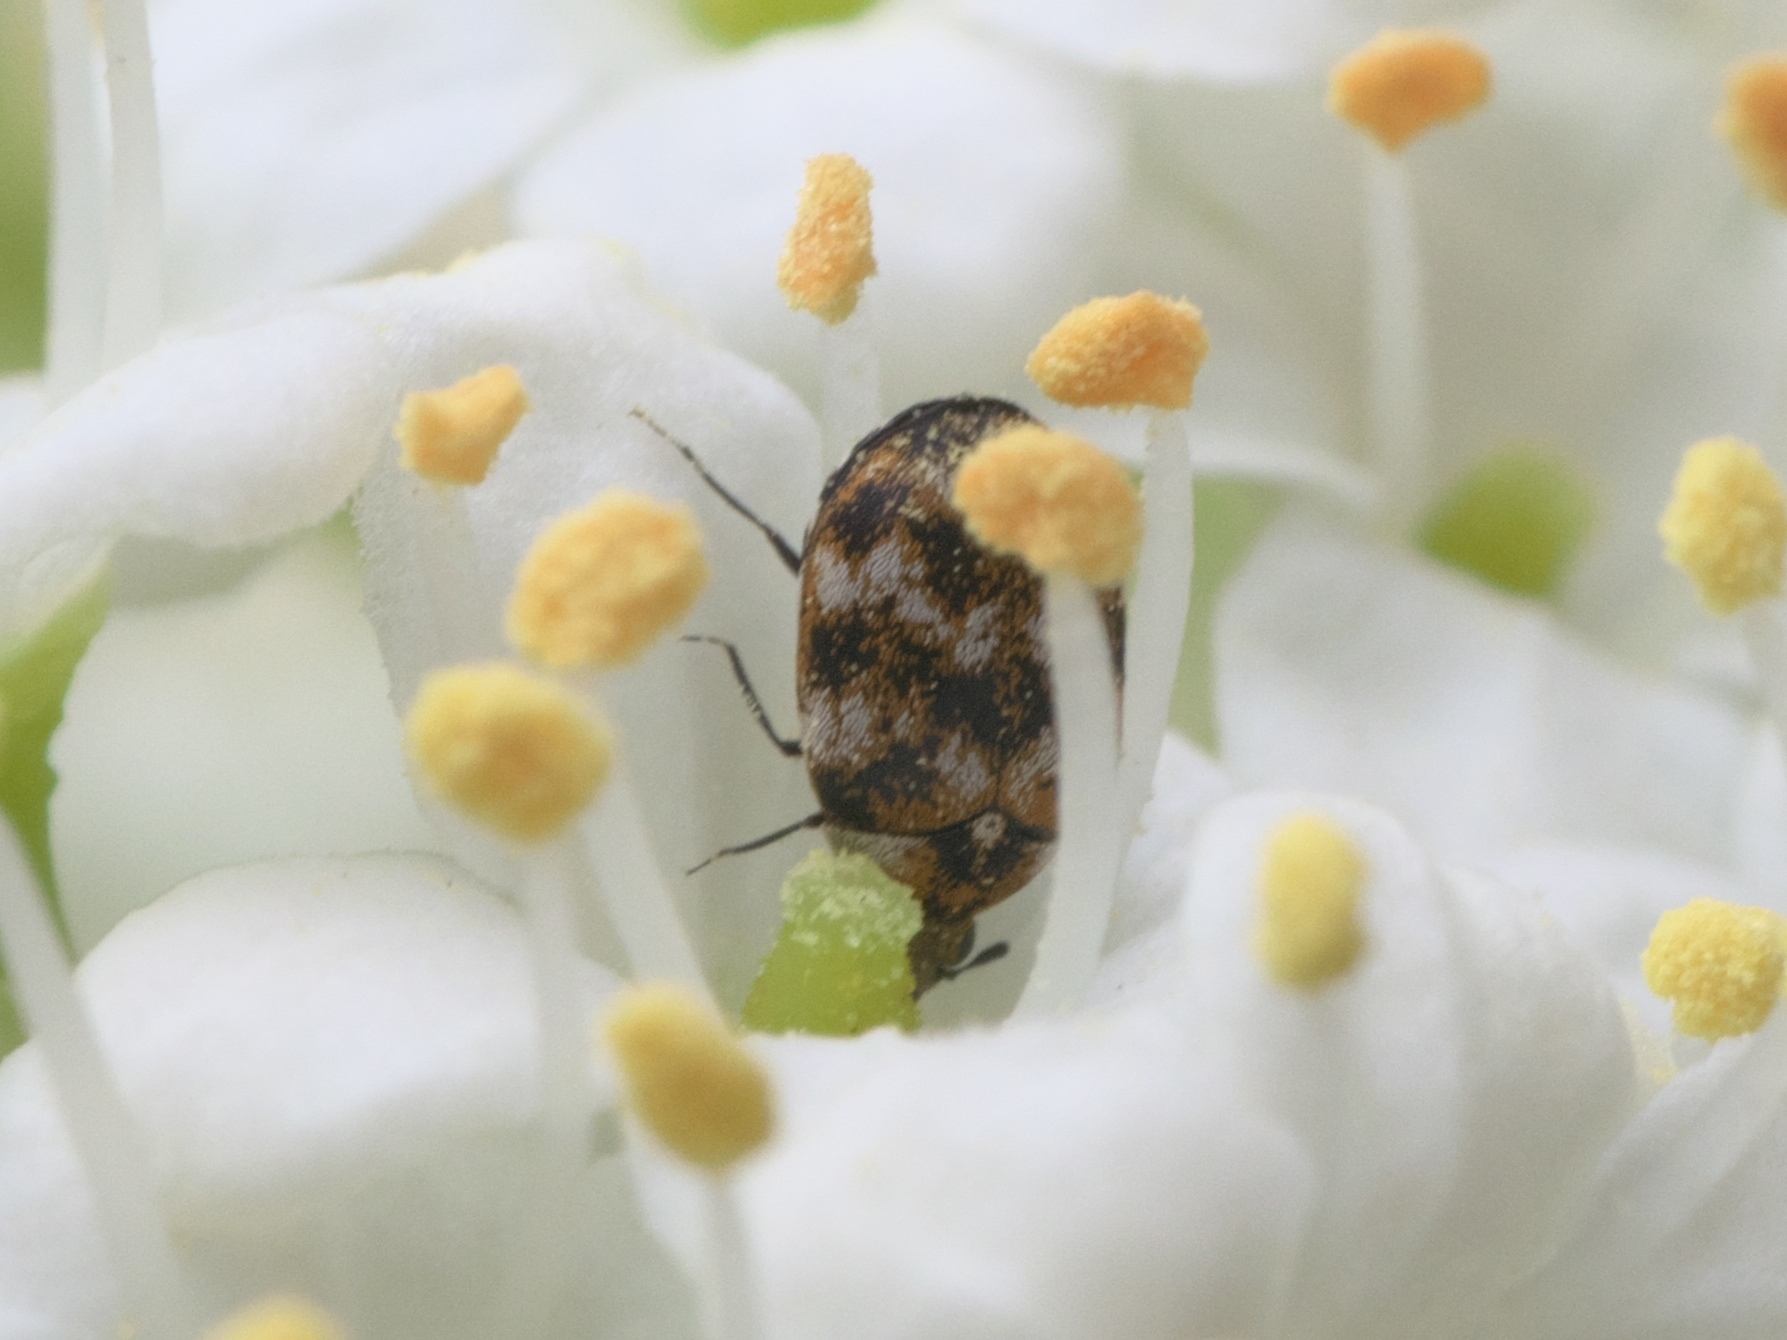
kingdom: Animalia
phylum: Arthropoda
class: Insecta
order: Coleoptera
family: Dermestidae
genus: Anthrenus
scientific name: Anthrenus verbasci
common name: Varied carpet beetle
